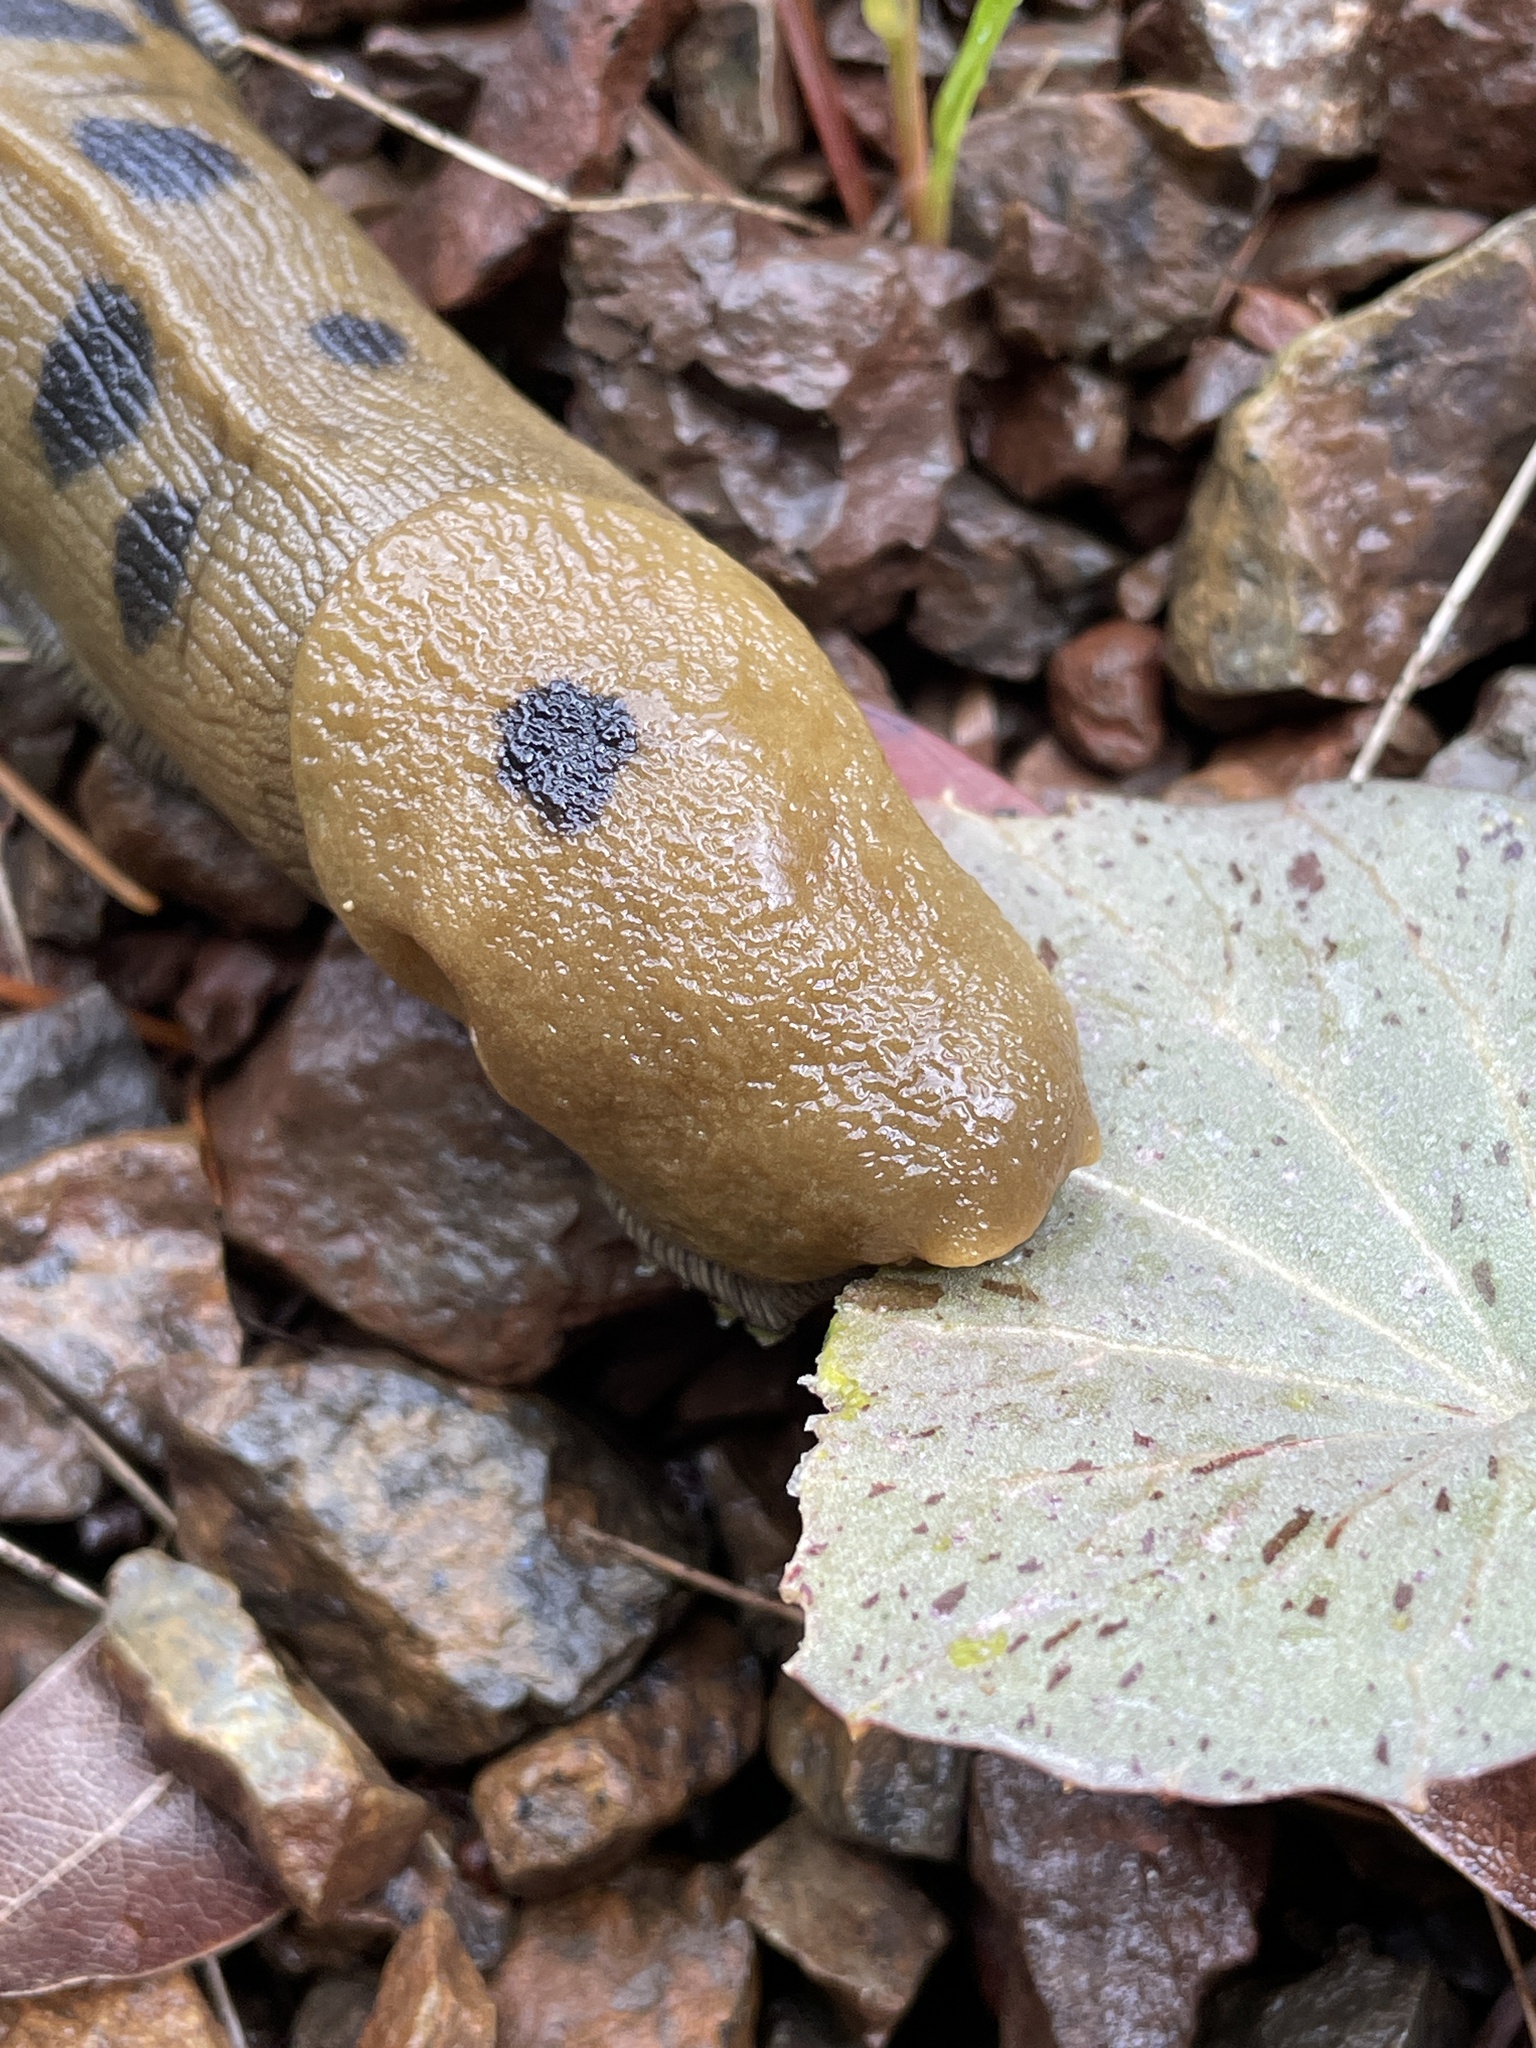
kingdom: Animalia
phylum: Mollusca
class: Gastropoda
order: Stylommatophora
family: Ariolimacidae
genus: Ariolimax
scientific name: Ariolimax buttoni
